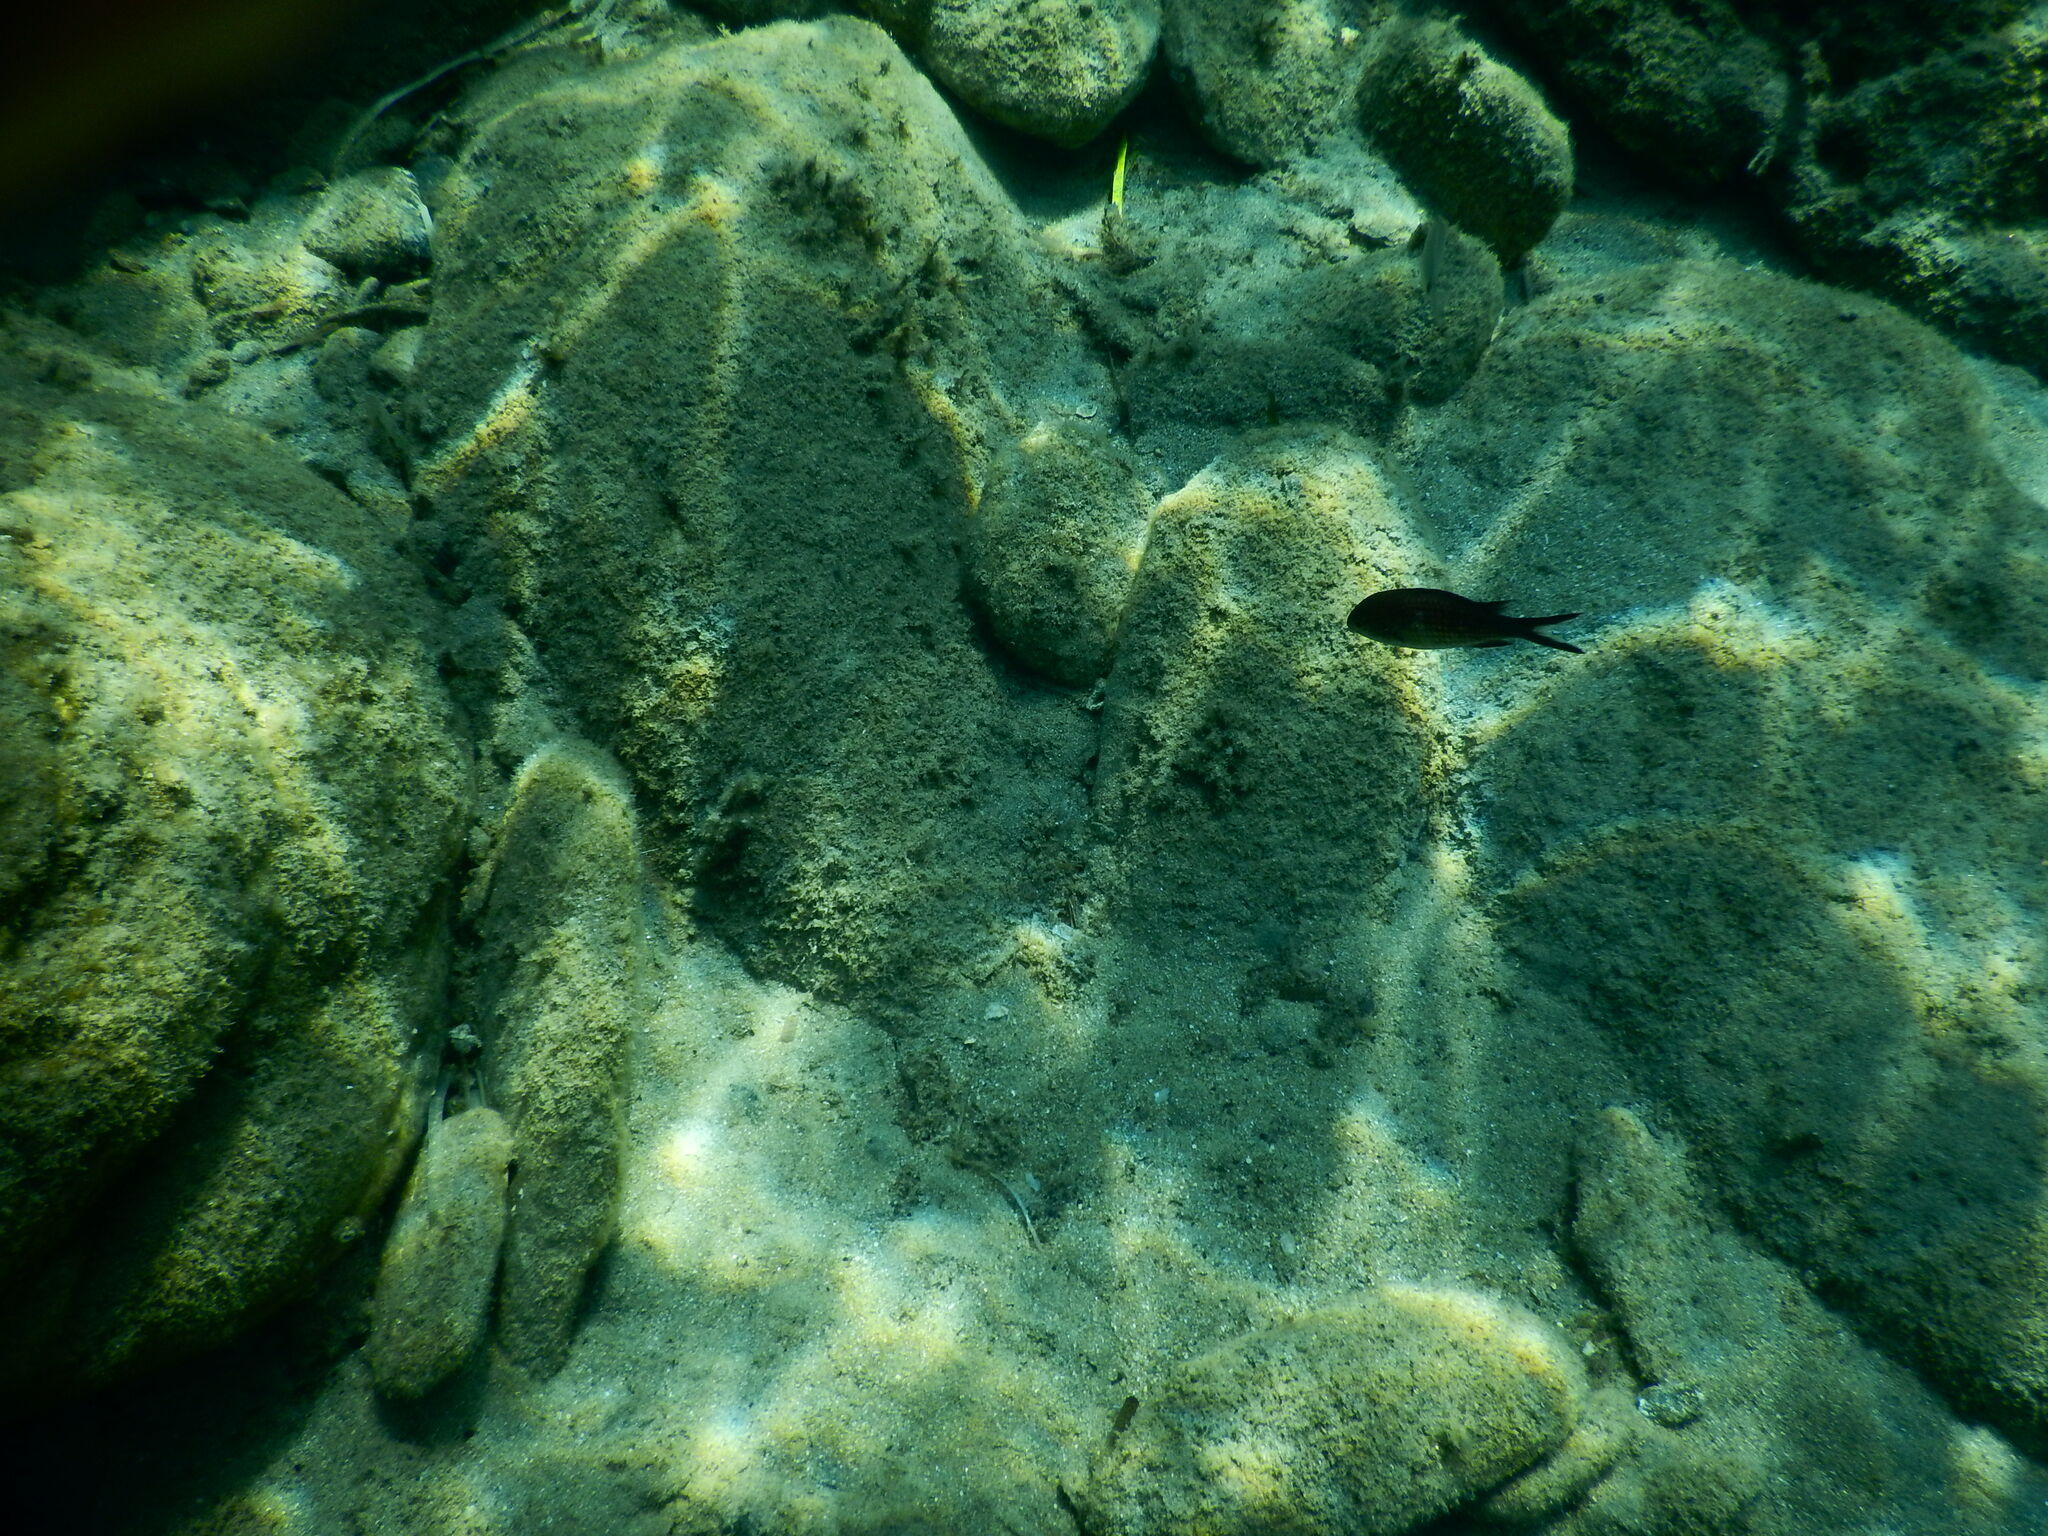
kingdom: Animalia
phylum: Chordata
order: Perciformes
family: Pomacentridae
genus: Chromis
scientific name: Chromis chromis
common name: Damselfish
